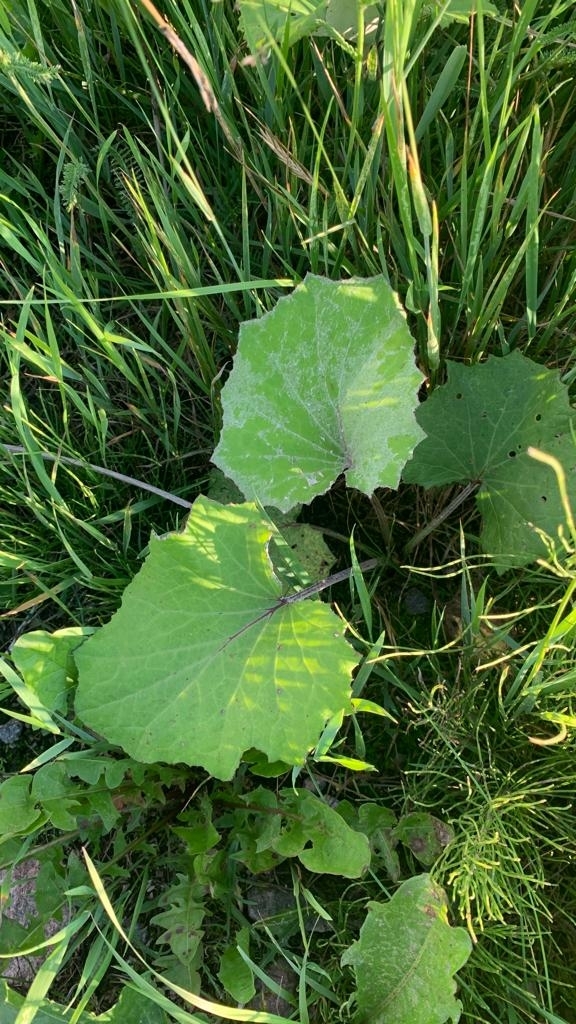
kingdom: Plantae
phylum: Tracheophyta
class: Magnoliopsida
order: Asterales
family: Asteraceae
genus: Tussilago
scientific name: Tussilago farfara
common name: Coltsfoot
